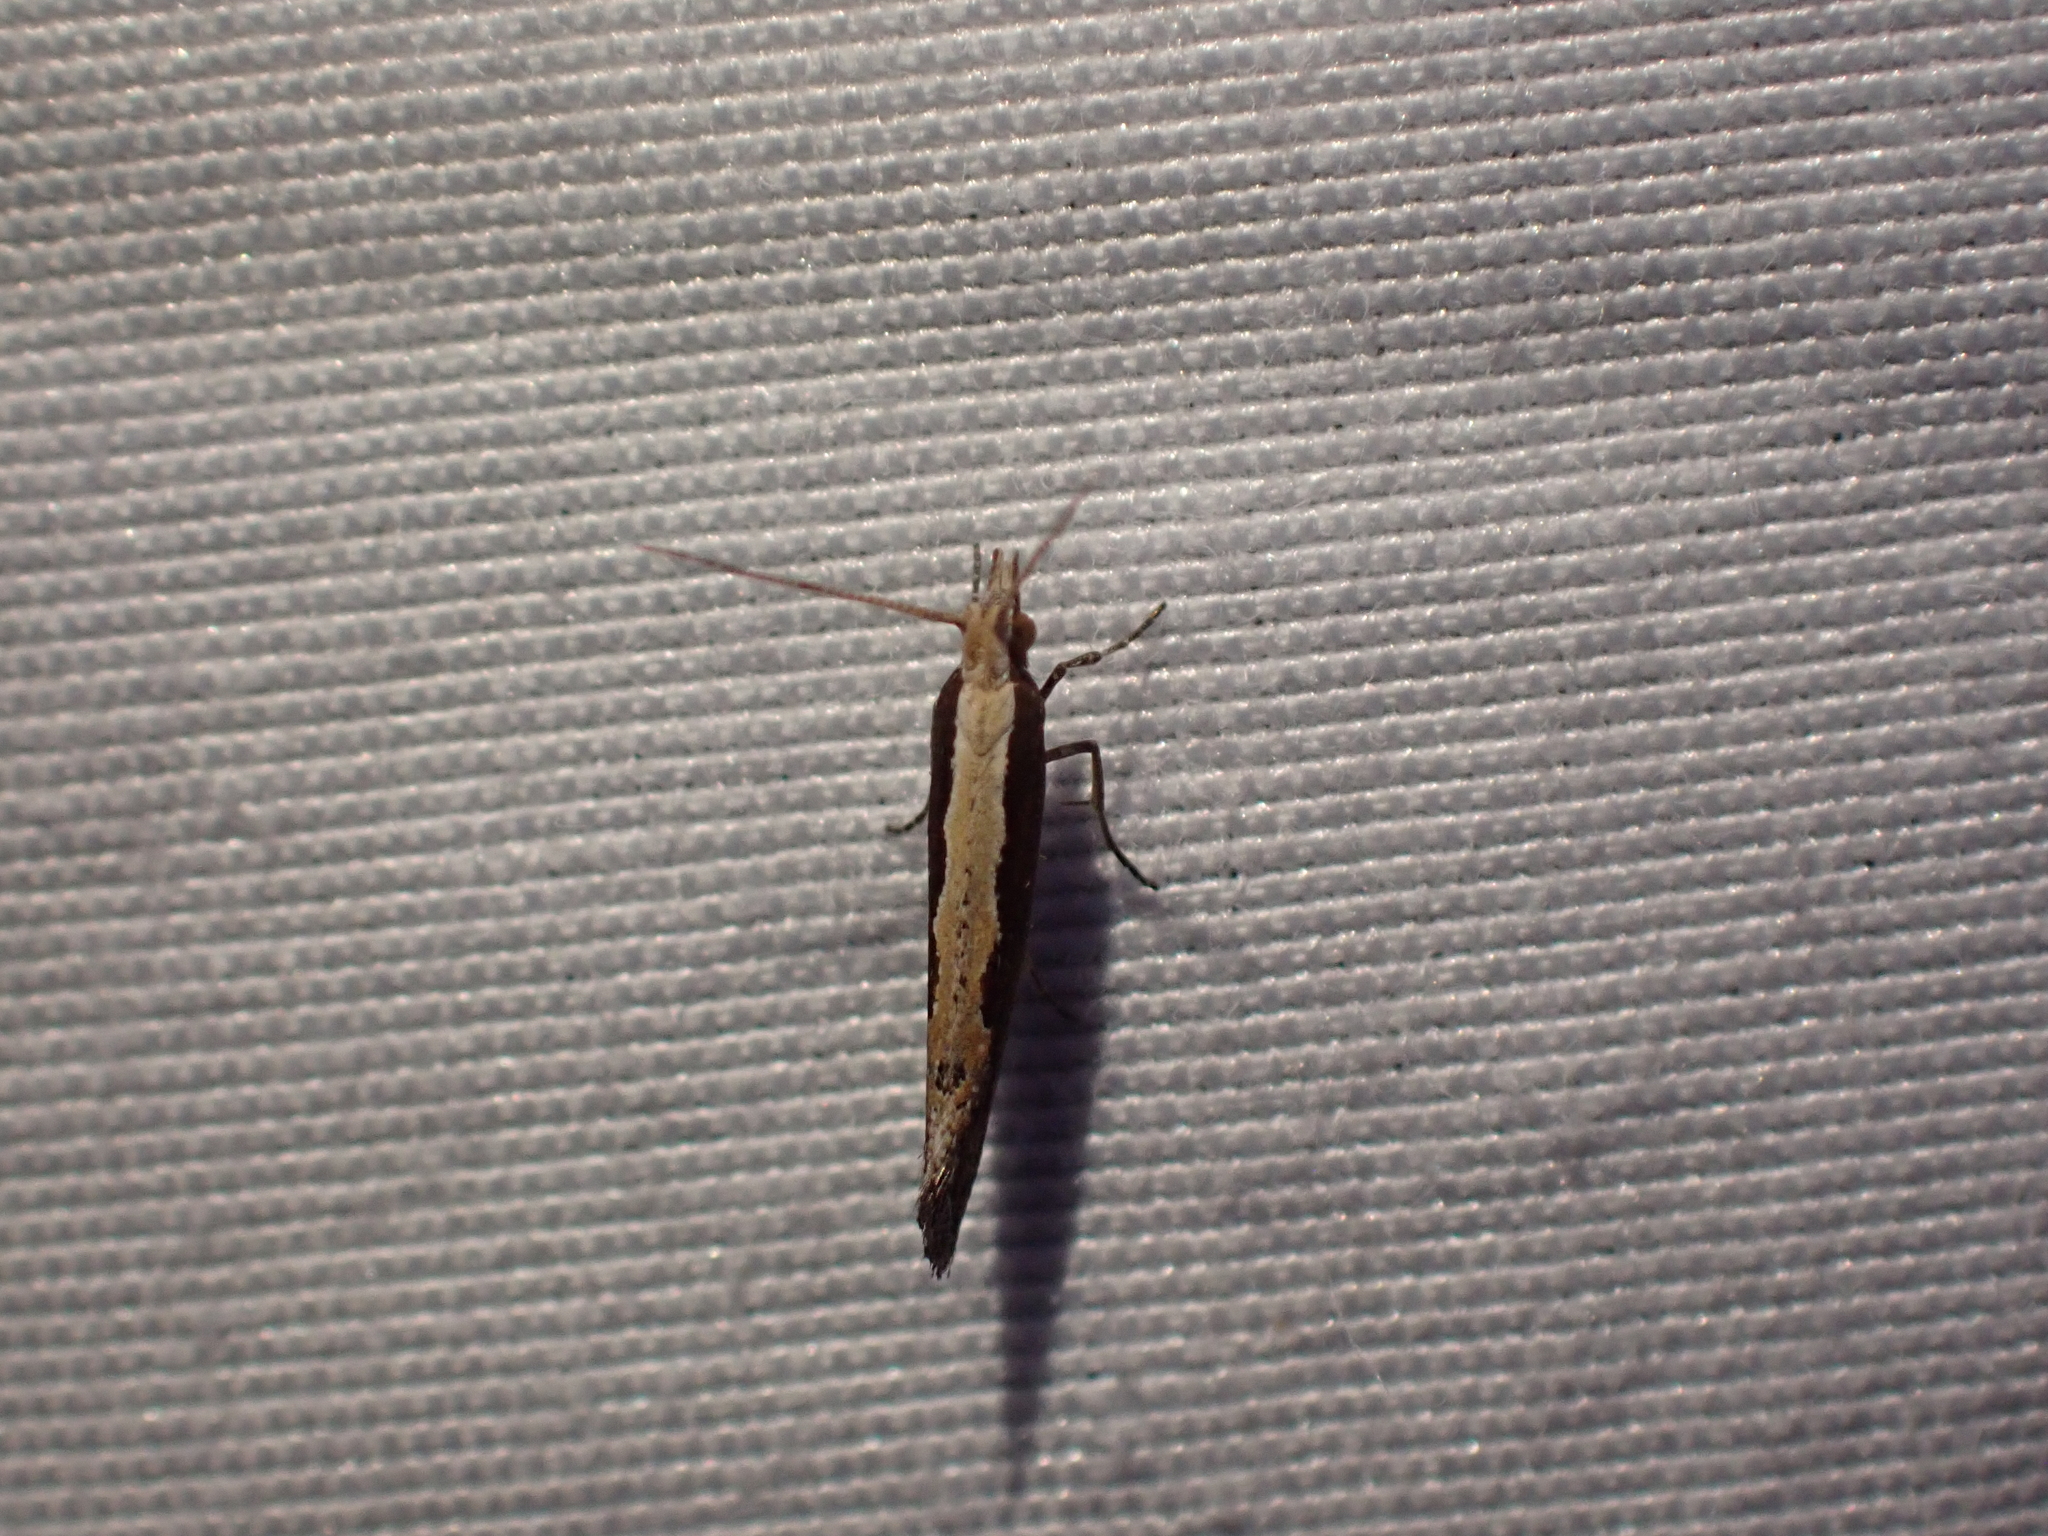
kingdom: Animalia
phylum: Arthropoda
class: Insecta
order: Lepidoptera
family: Plutellidae
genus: Plutella
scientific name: Plutella xylostella
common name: Diamond-back moth
